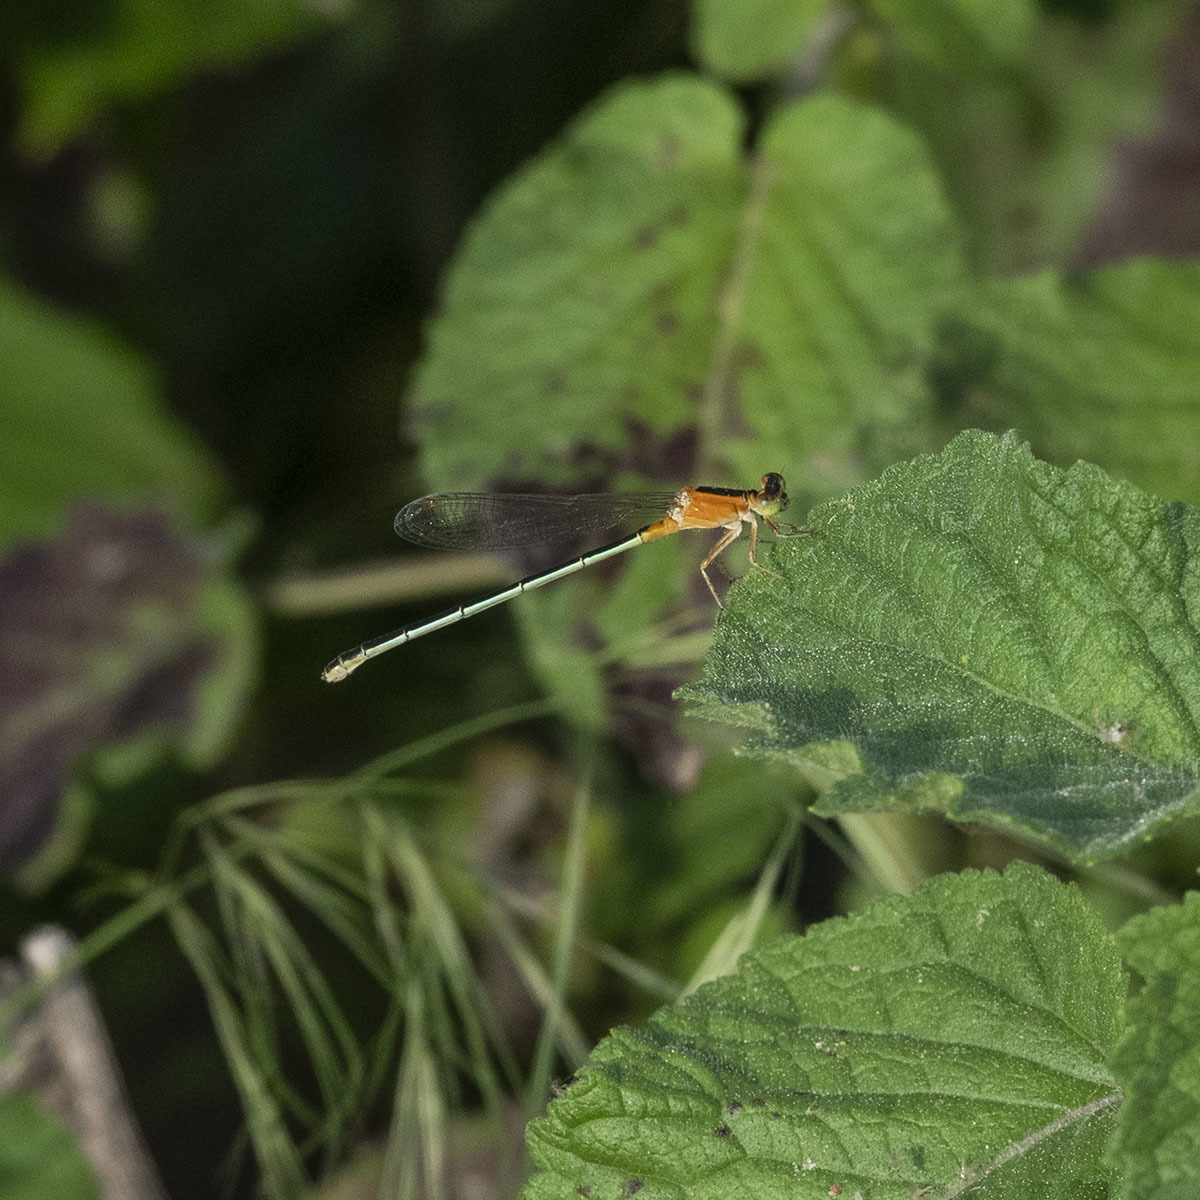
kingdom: Animalia
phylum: Arthropoda
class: Insecta
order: Odonata
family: Coenagrionidae
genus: Ischnura
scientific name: Ischnura senegalensis
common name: Tropical bluetail
